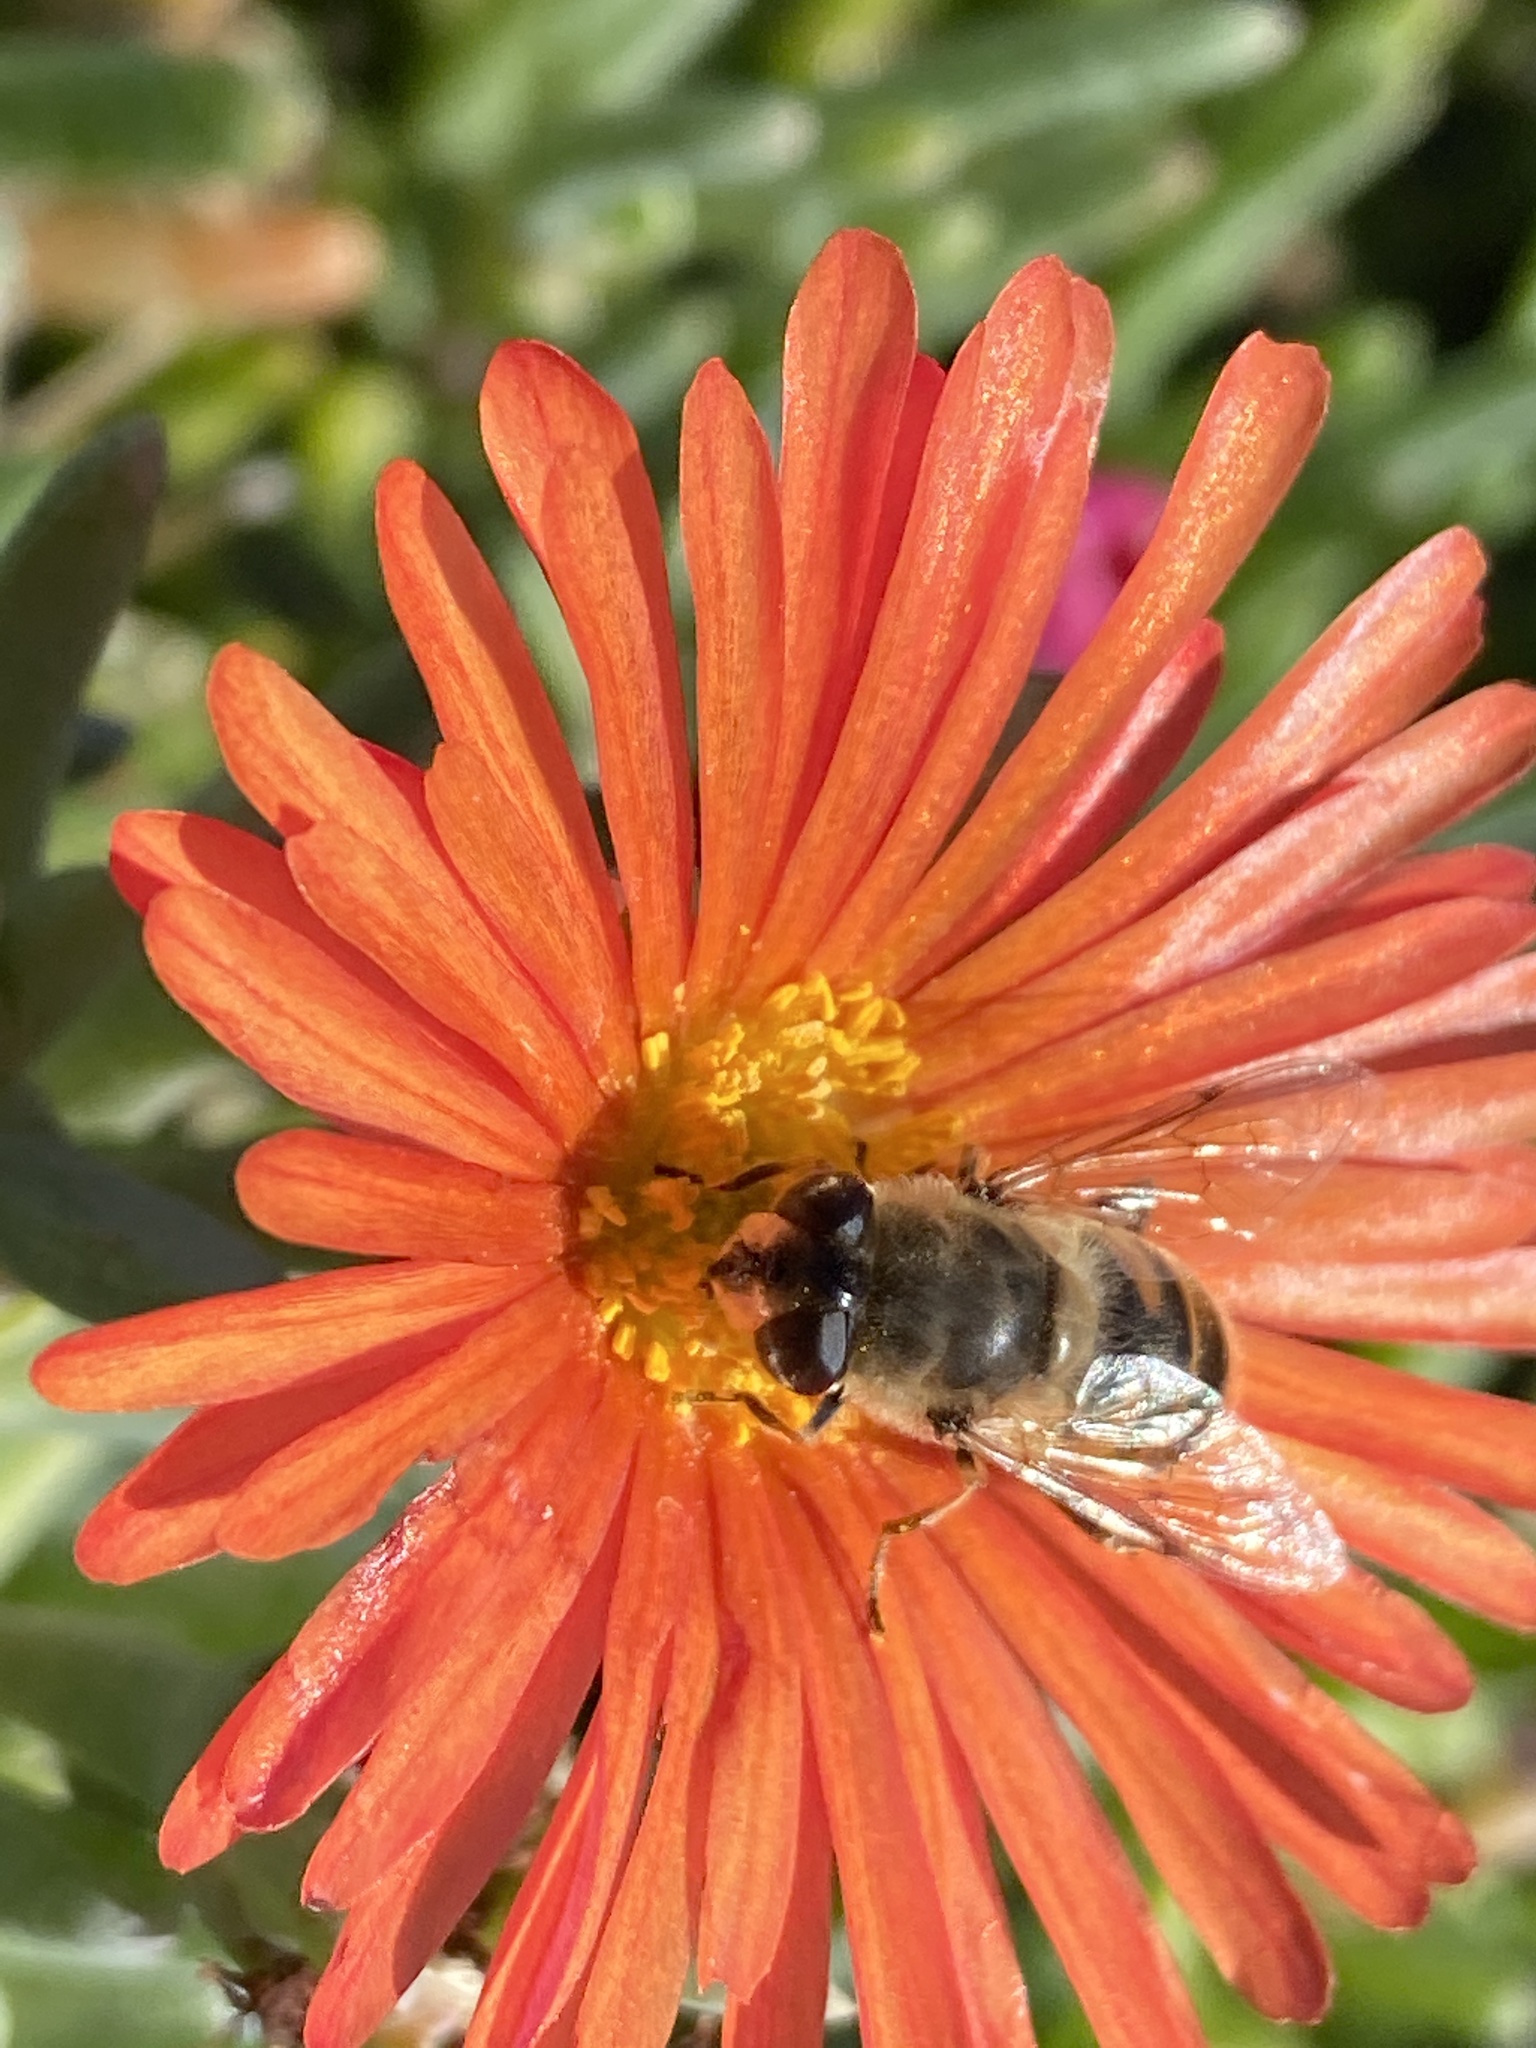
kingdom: Animalia
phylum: Arthropoda
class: Insecta
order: Diptera
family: Syrphidae
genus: Eristalis
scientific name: Eristalis tenax
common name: Drone fly
